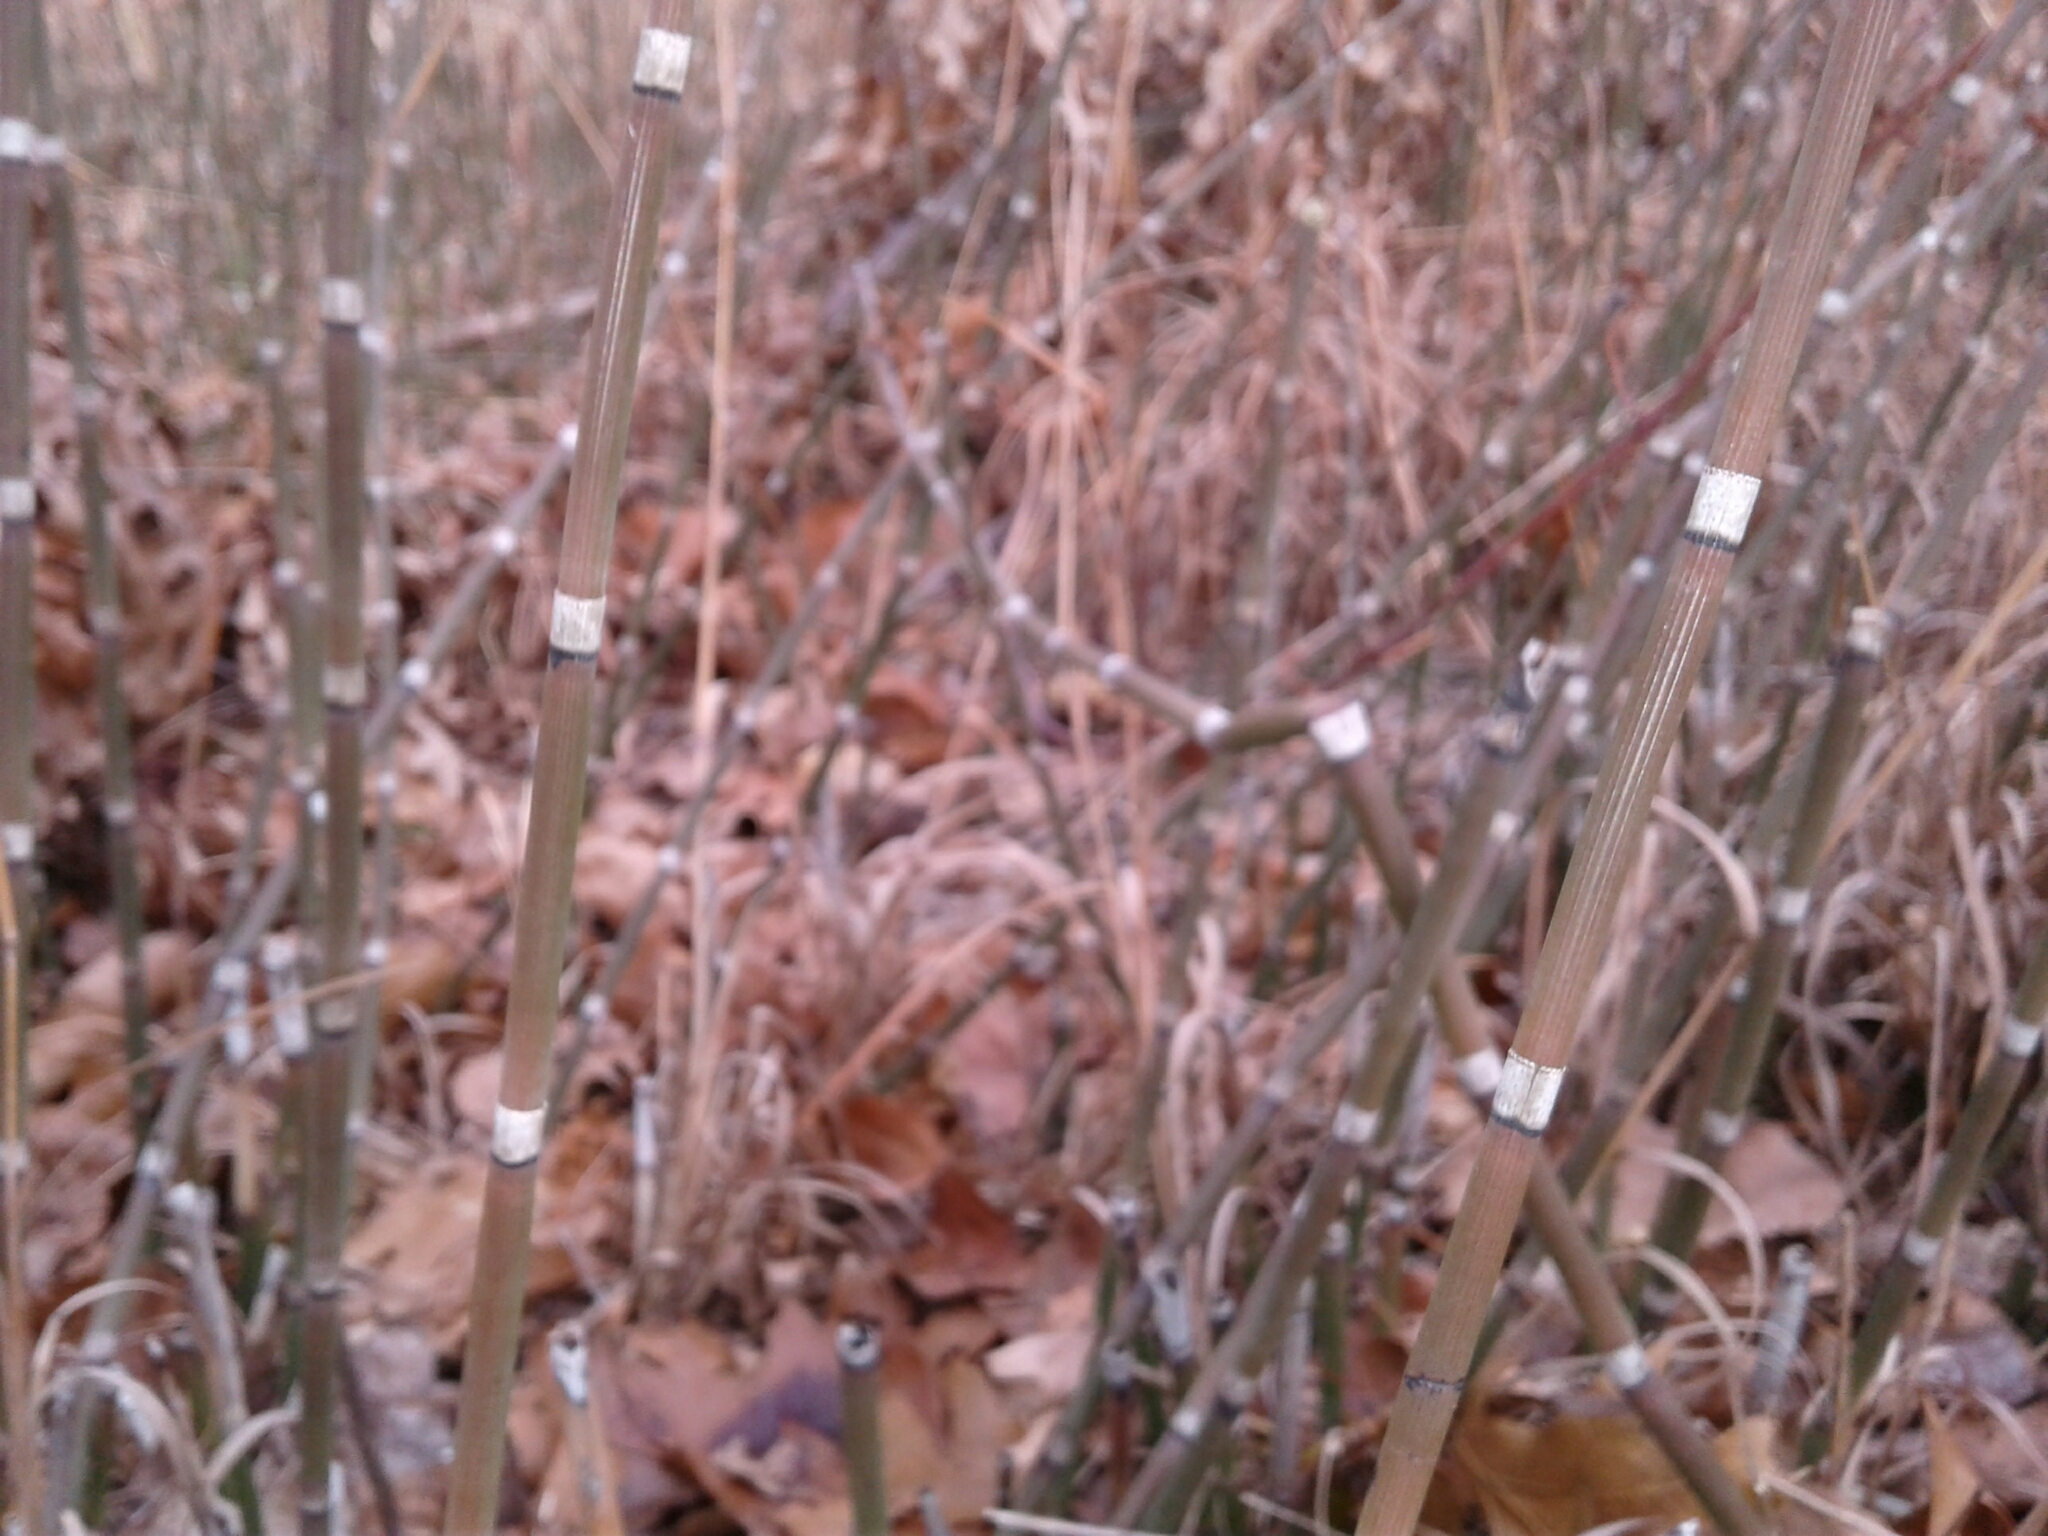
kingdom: Plantae
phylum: Tracheophyta
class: Polypodiopsida
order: Equisetales
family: Equisetaceae
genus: Equisetum
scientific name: Equisetum hyemale
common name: Rough horsetail
